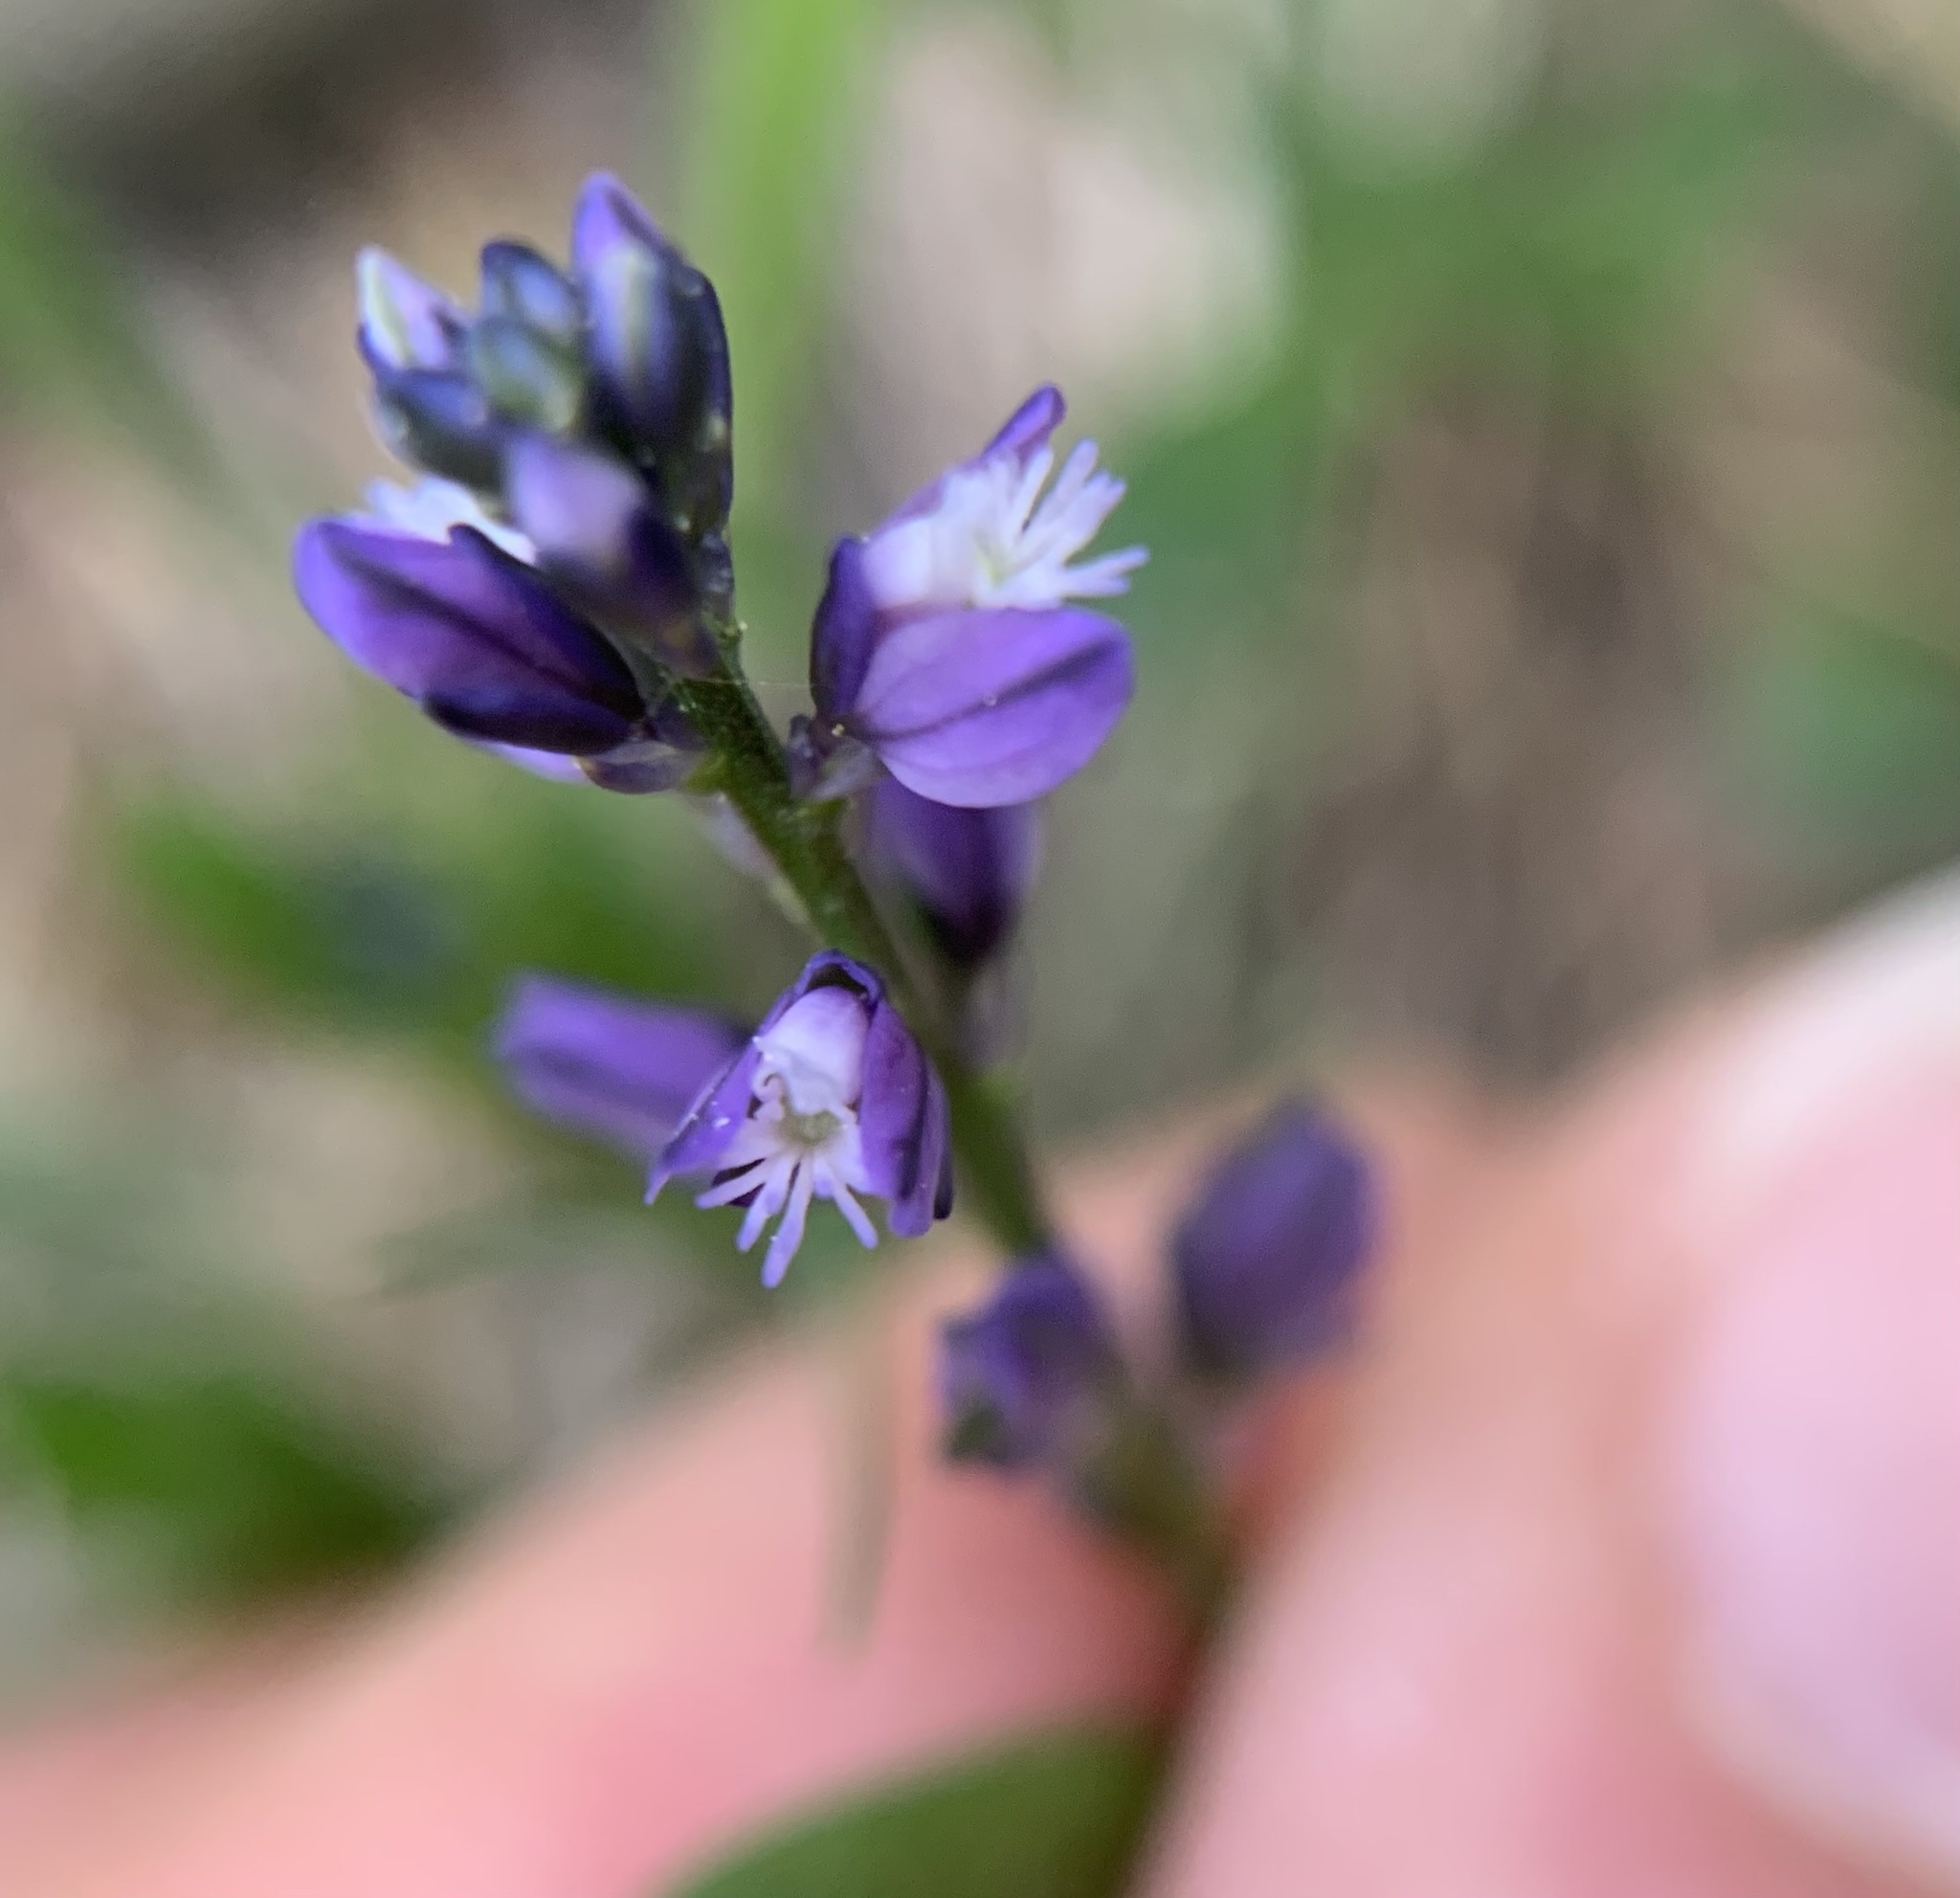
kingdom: Plantae
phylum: Tracheophyta
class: Magnoliopsida
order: Fabales
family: Polygalaceae
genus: Polygala
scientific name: Polygala vulgaris
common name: Common milkwort
